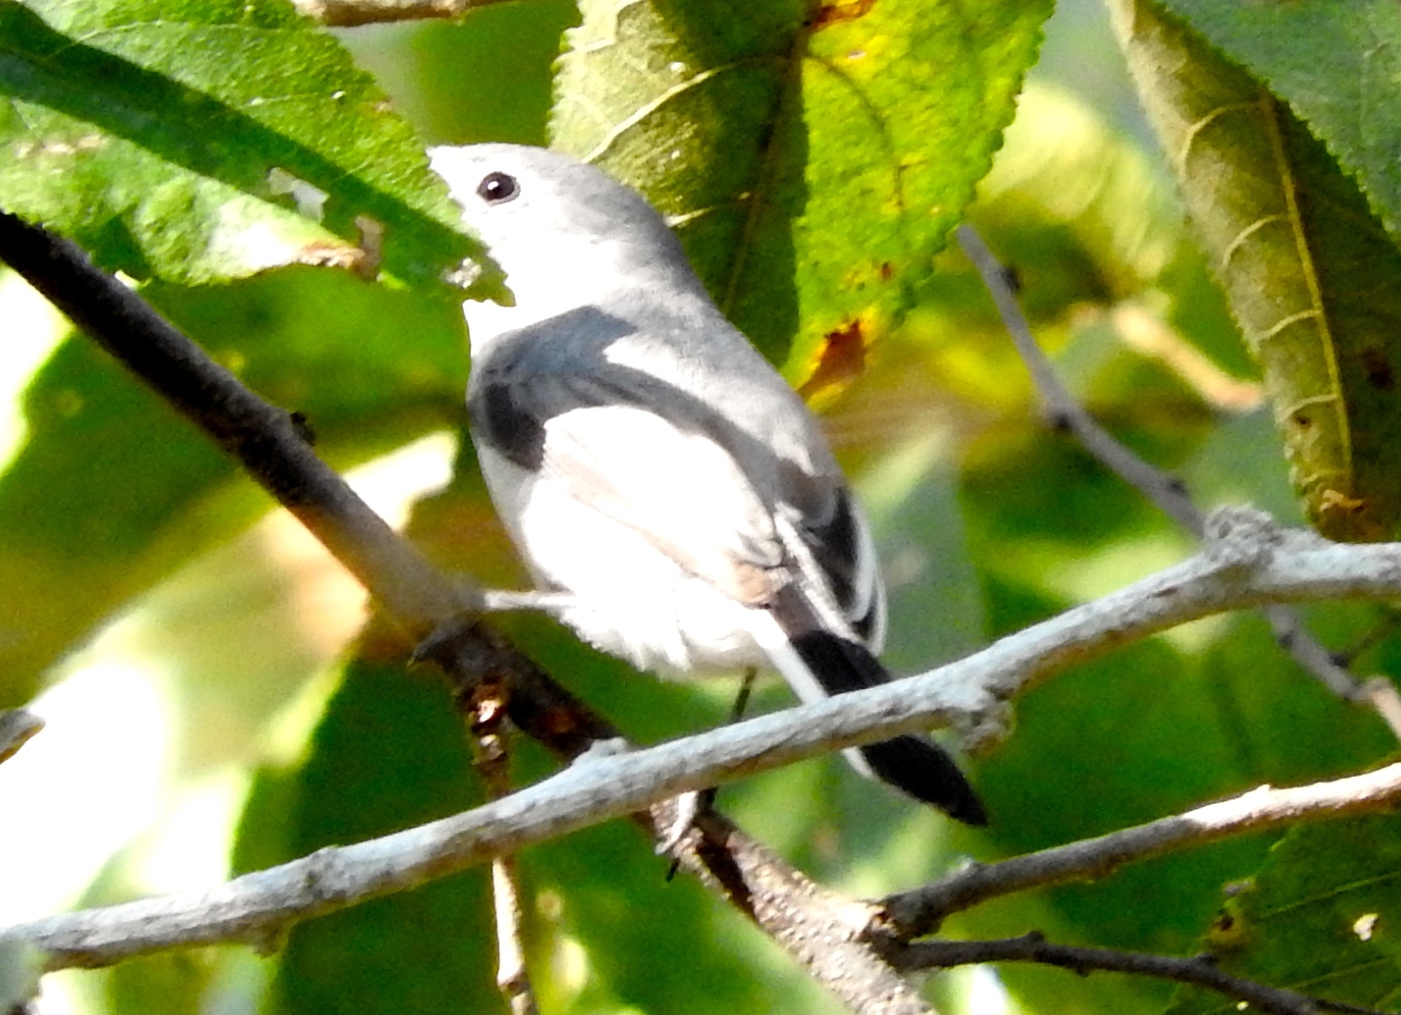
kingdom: Animalia
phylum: Chordata
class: Aves
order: Passeriformes
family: Polioptilidae
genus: Polioptila
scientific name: Polioptila caerulea
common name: Blue-gray gnatcatcher
